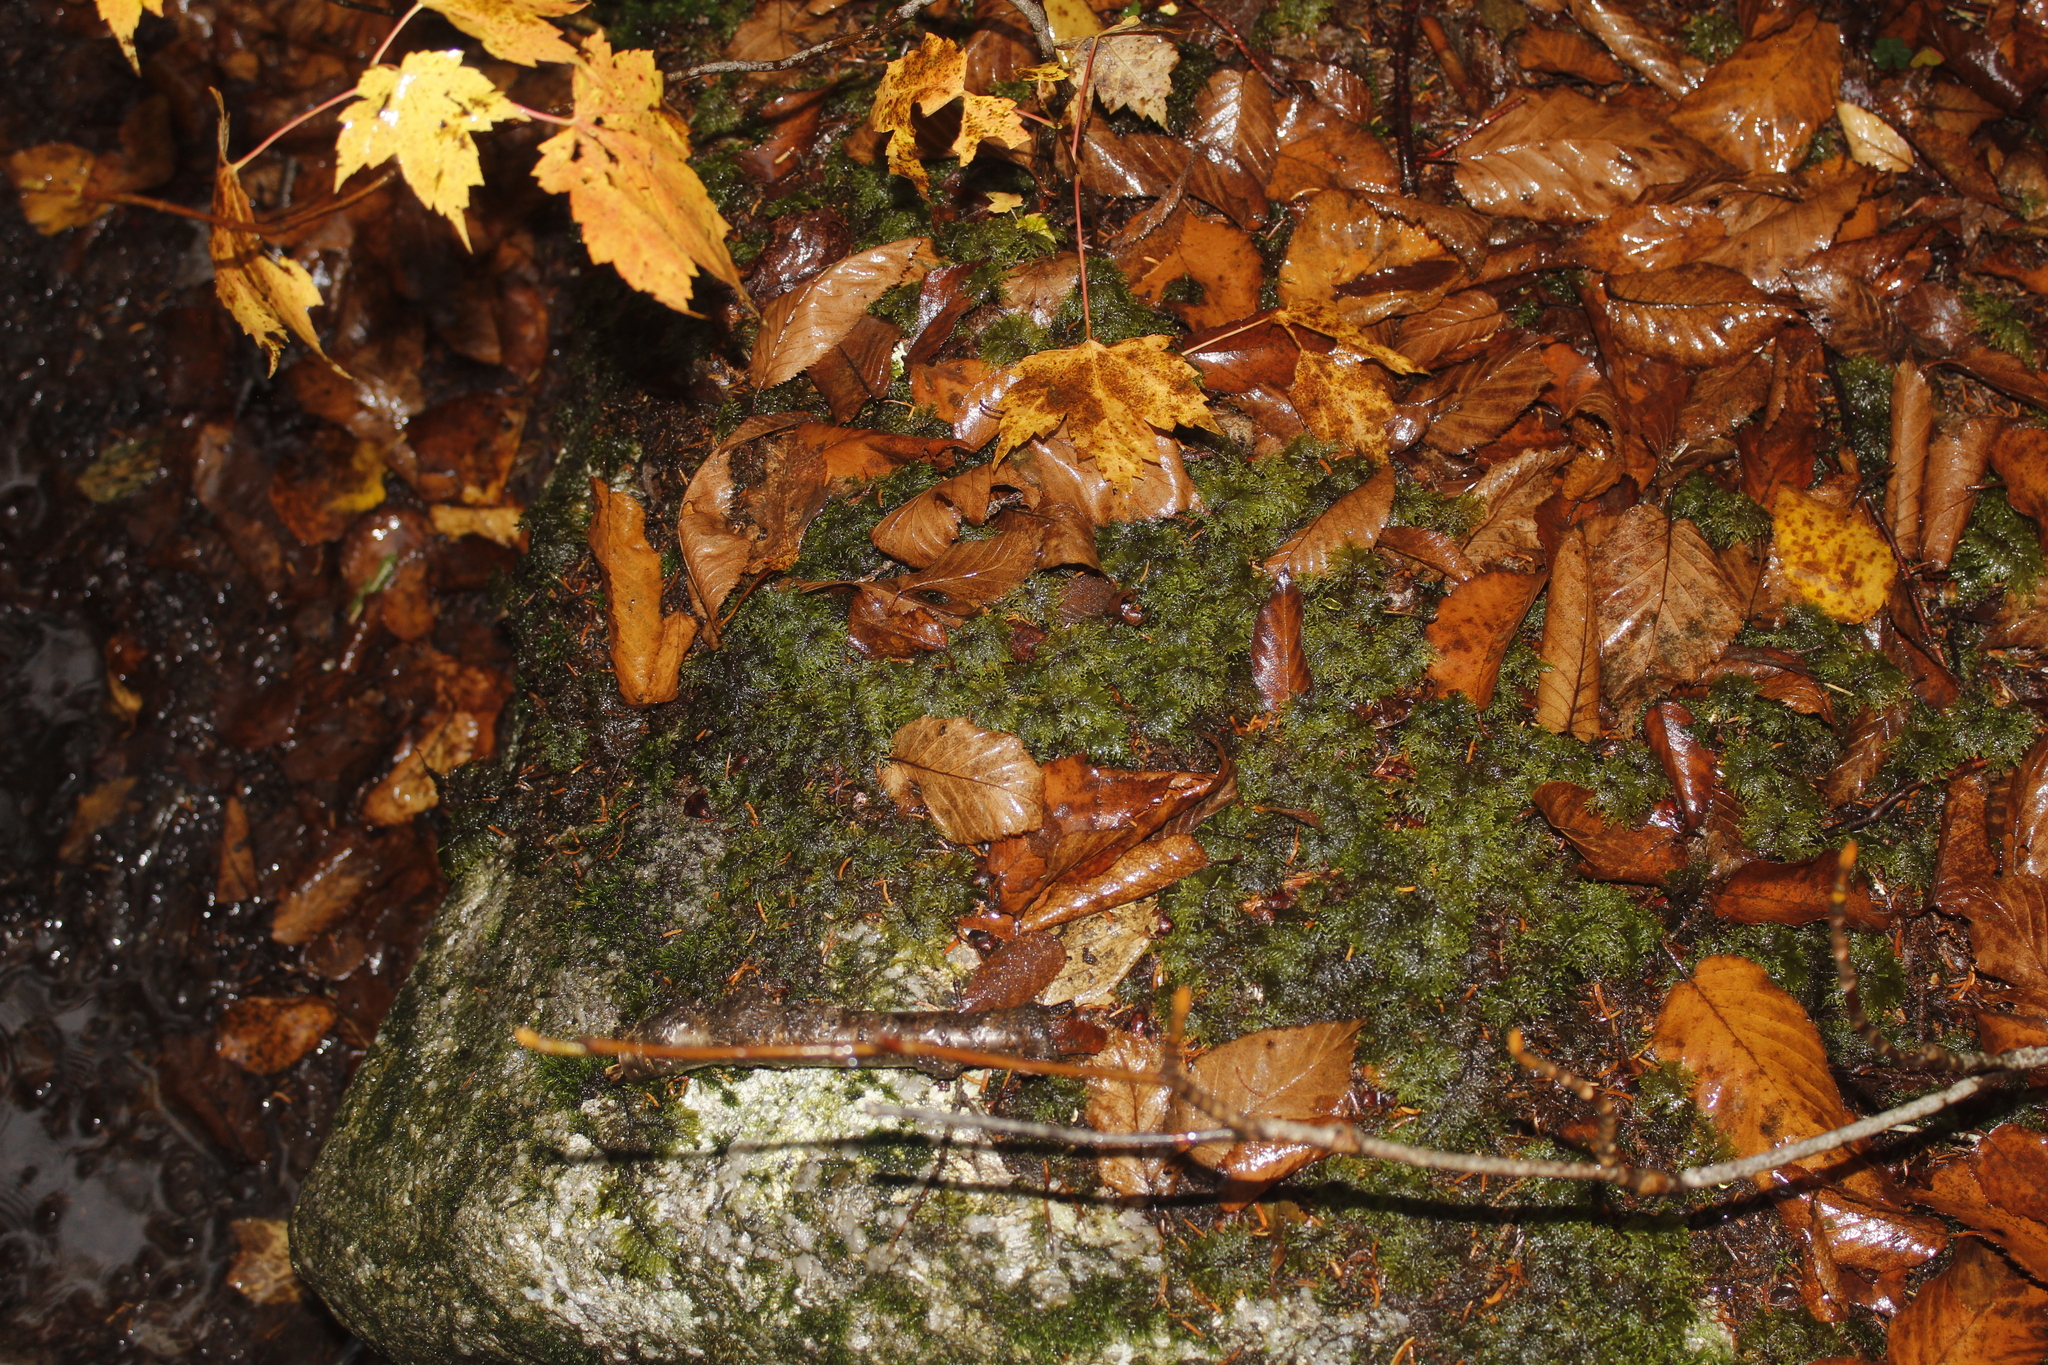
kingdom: Plantae
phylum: Bryophyta
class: Bryopsida
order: Hypnales
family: Hylocomiaceae
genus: Hylocomium
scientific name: Hylocomium splendens
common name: Stairstep moss
